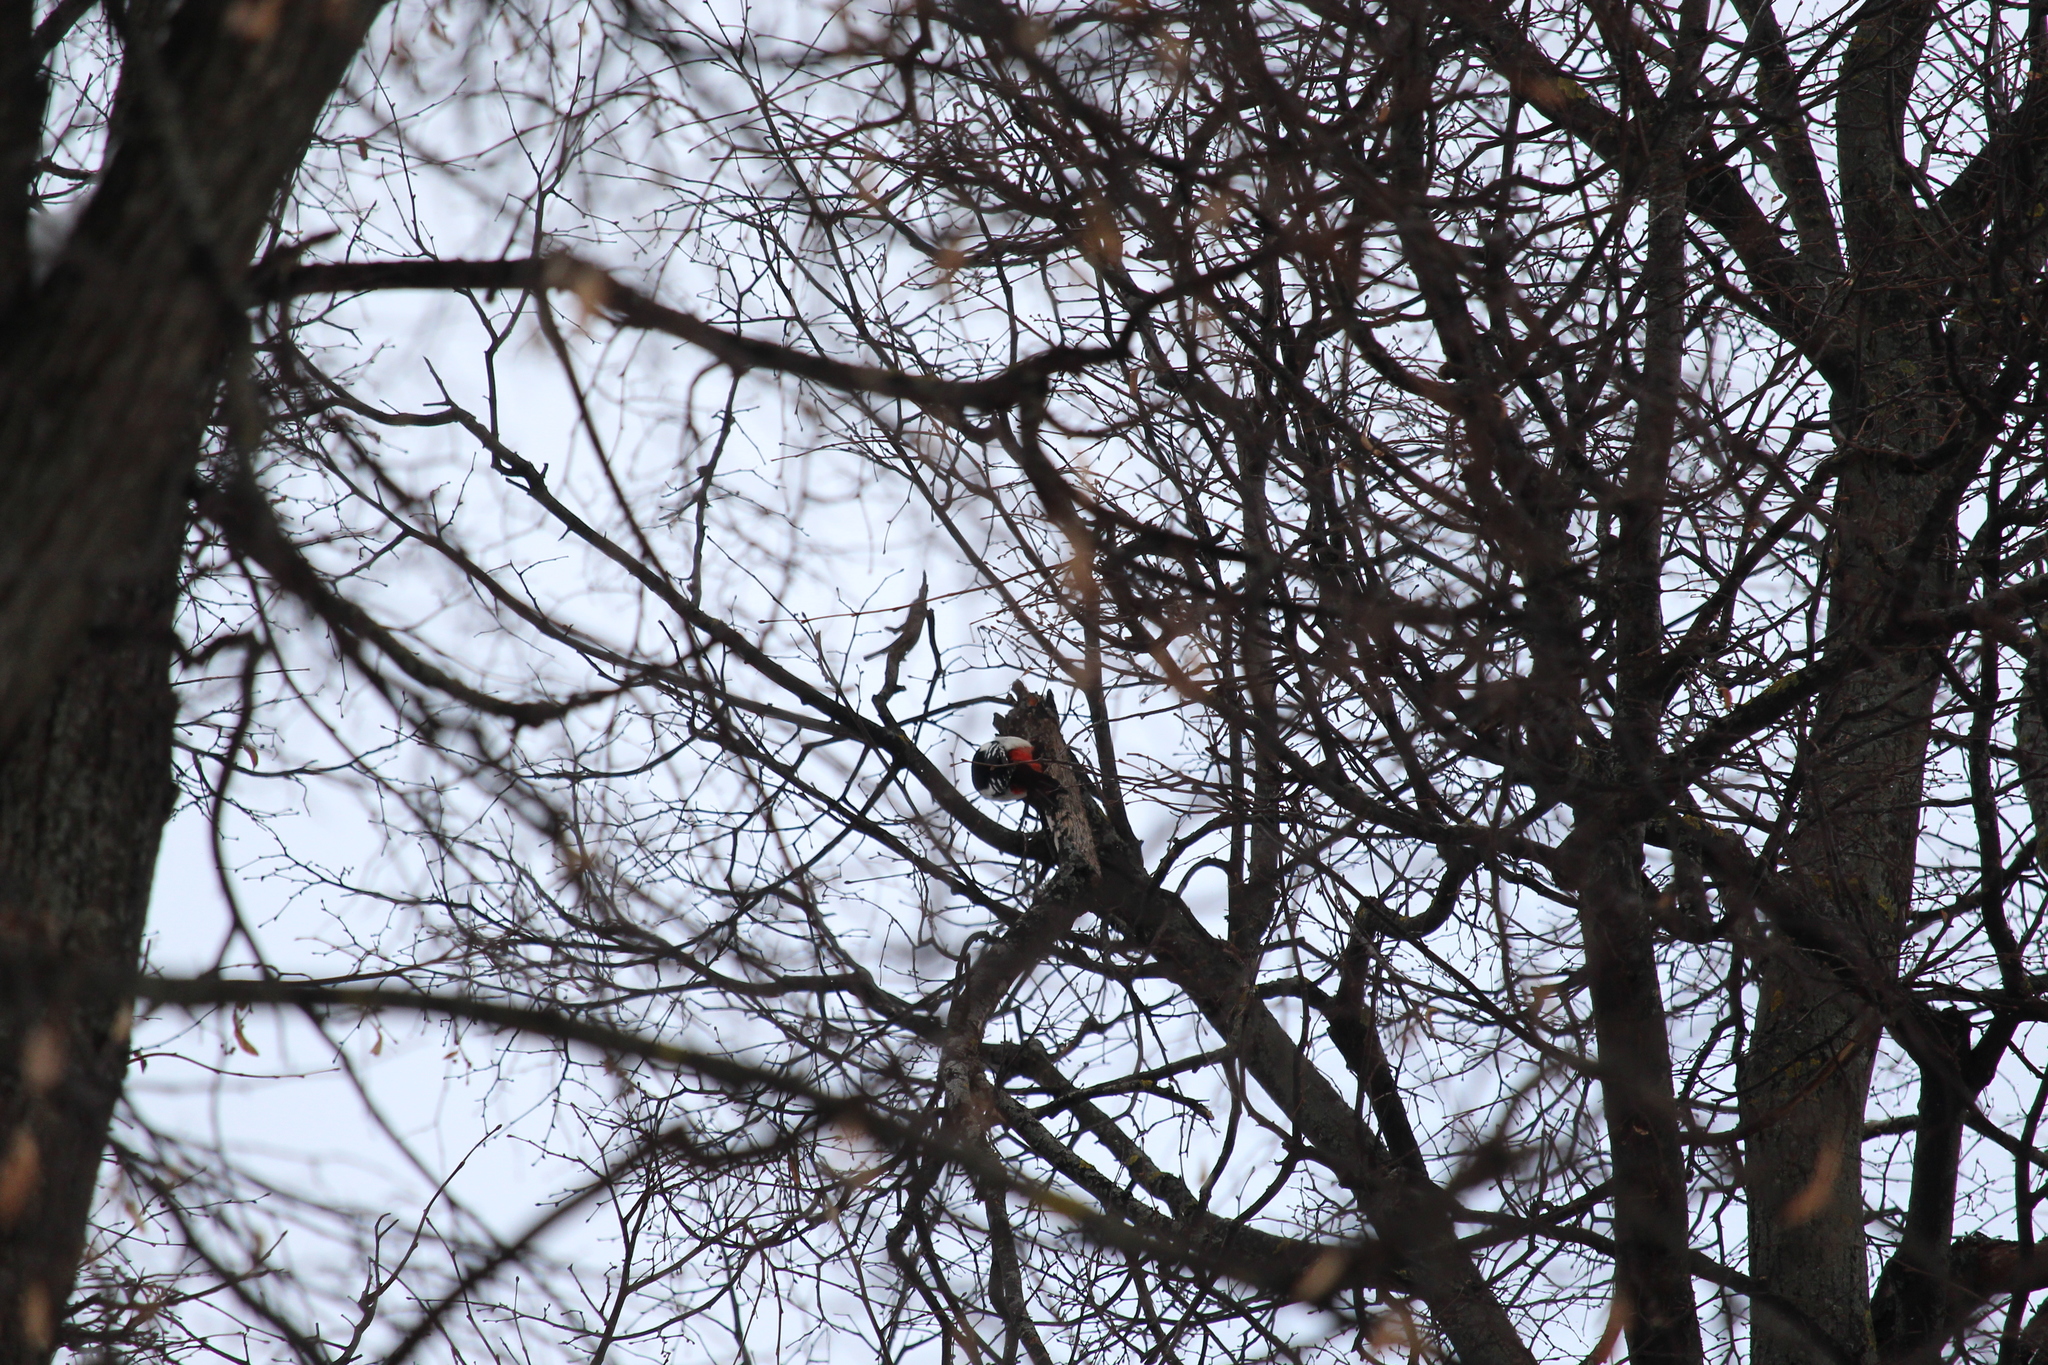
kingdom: Animalia
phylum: Chordata
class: Aves
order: Piciformes
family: Picidae
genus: Dendrocopos
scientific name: Dendrocopos major
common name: Great spotted woodpecker
